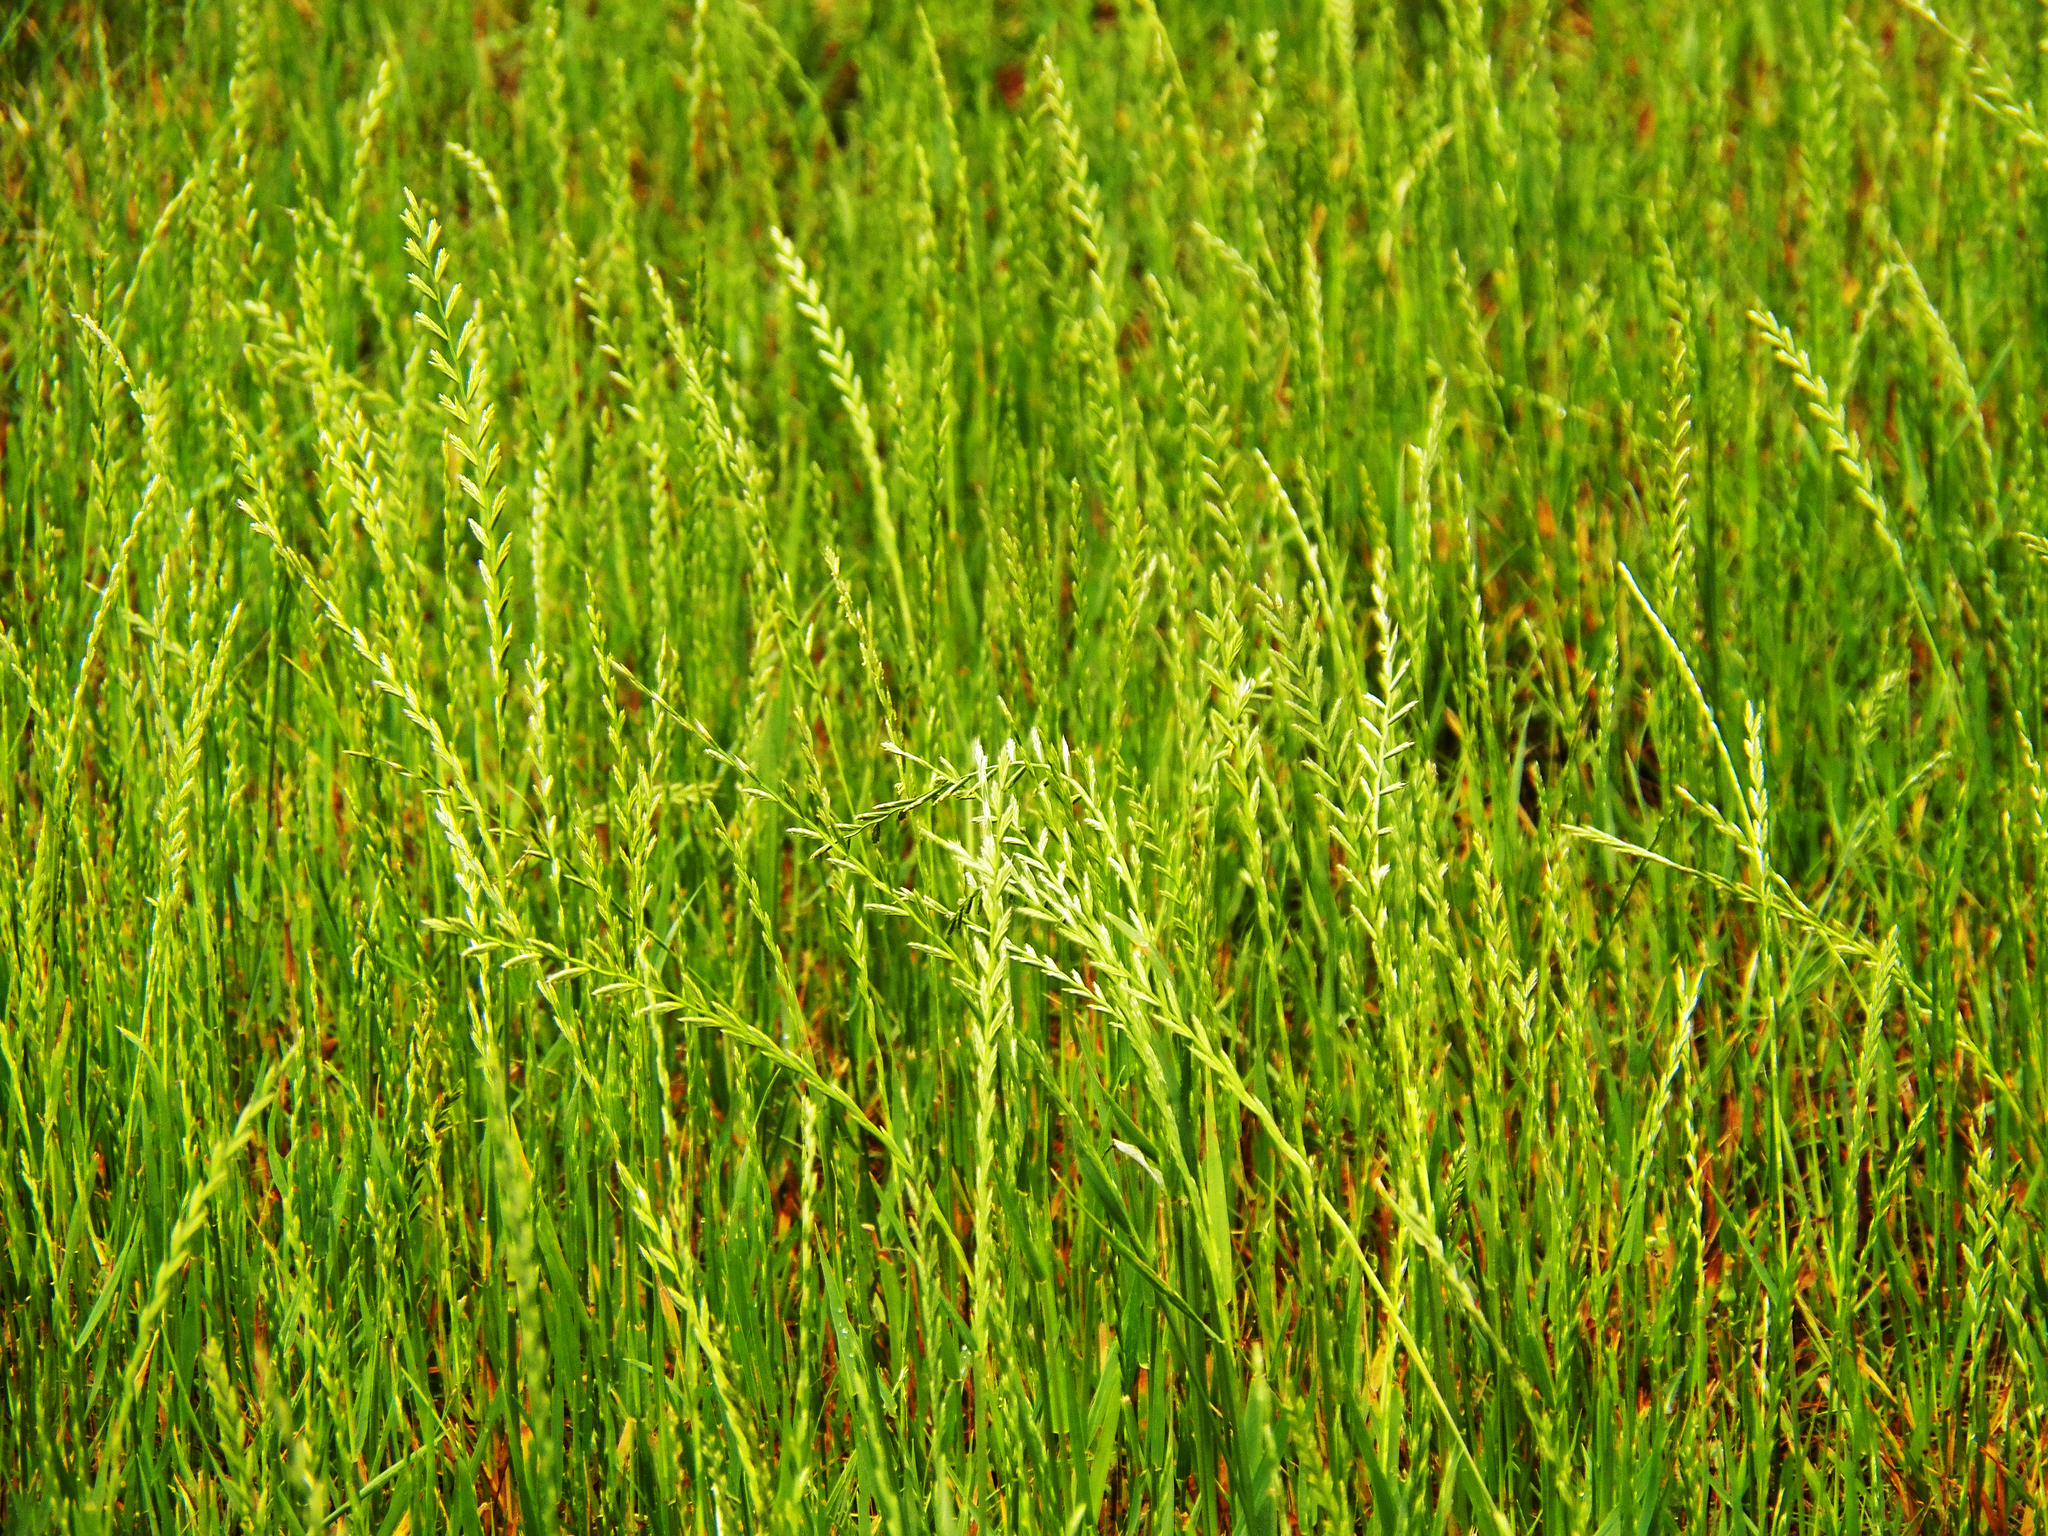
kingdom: Plantae
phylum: Tracheophyta
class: Liliopsida
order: Poales
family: Poaceae
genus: Lolium
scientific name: Lolium perenne
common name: Perennial ryegrass
